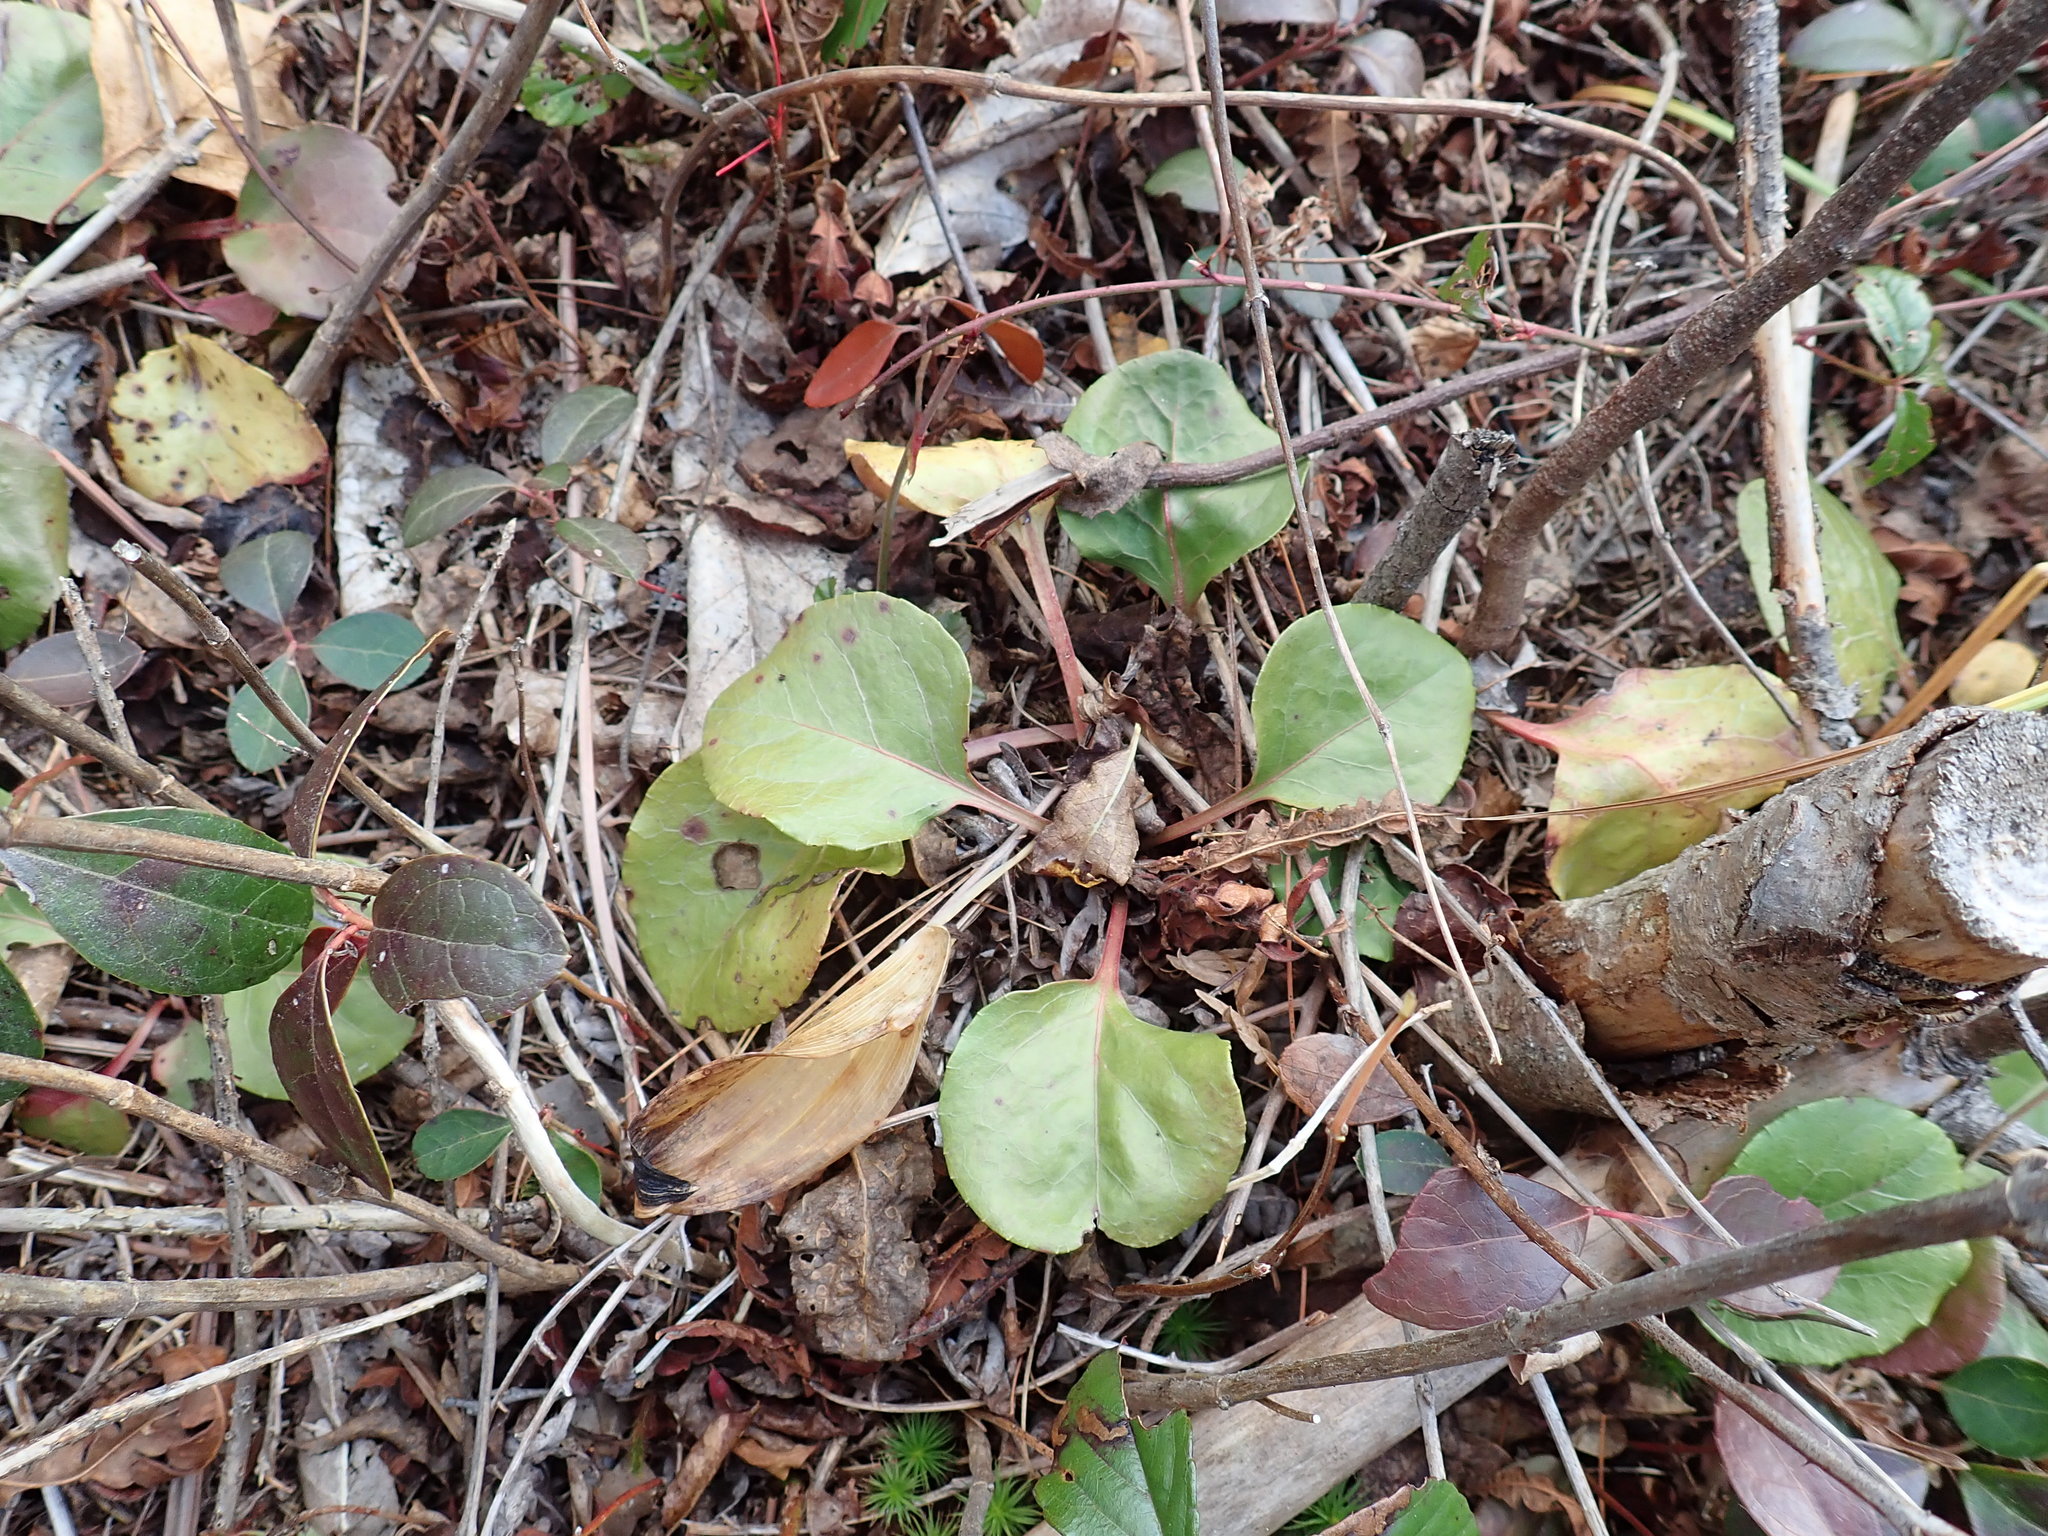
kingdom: Plantae
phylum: Tracheophyta
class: Magnoliopsida
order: Ericales
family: Ericaceae
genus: Pyrola
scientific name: Pyrola americana
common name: American wintergreen
